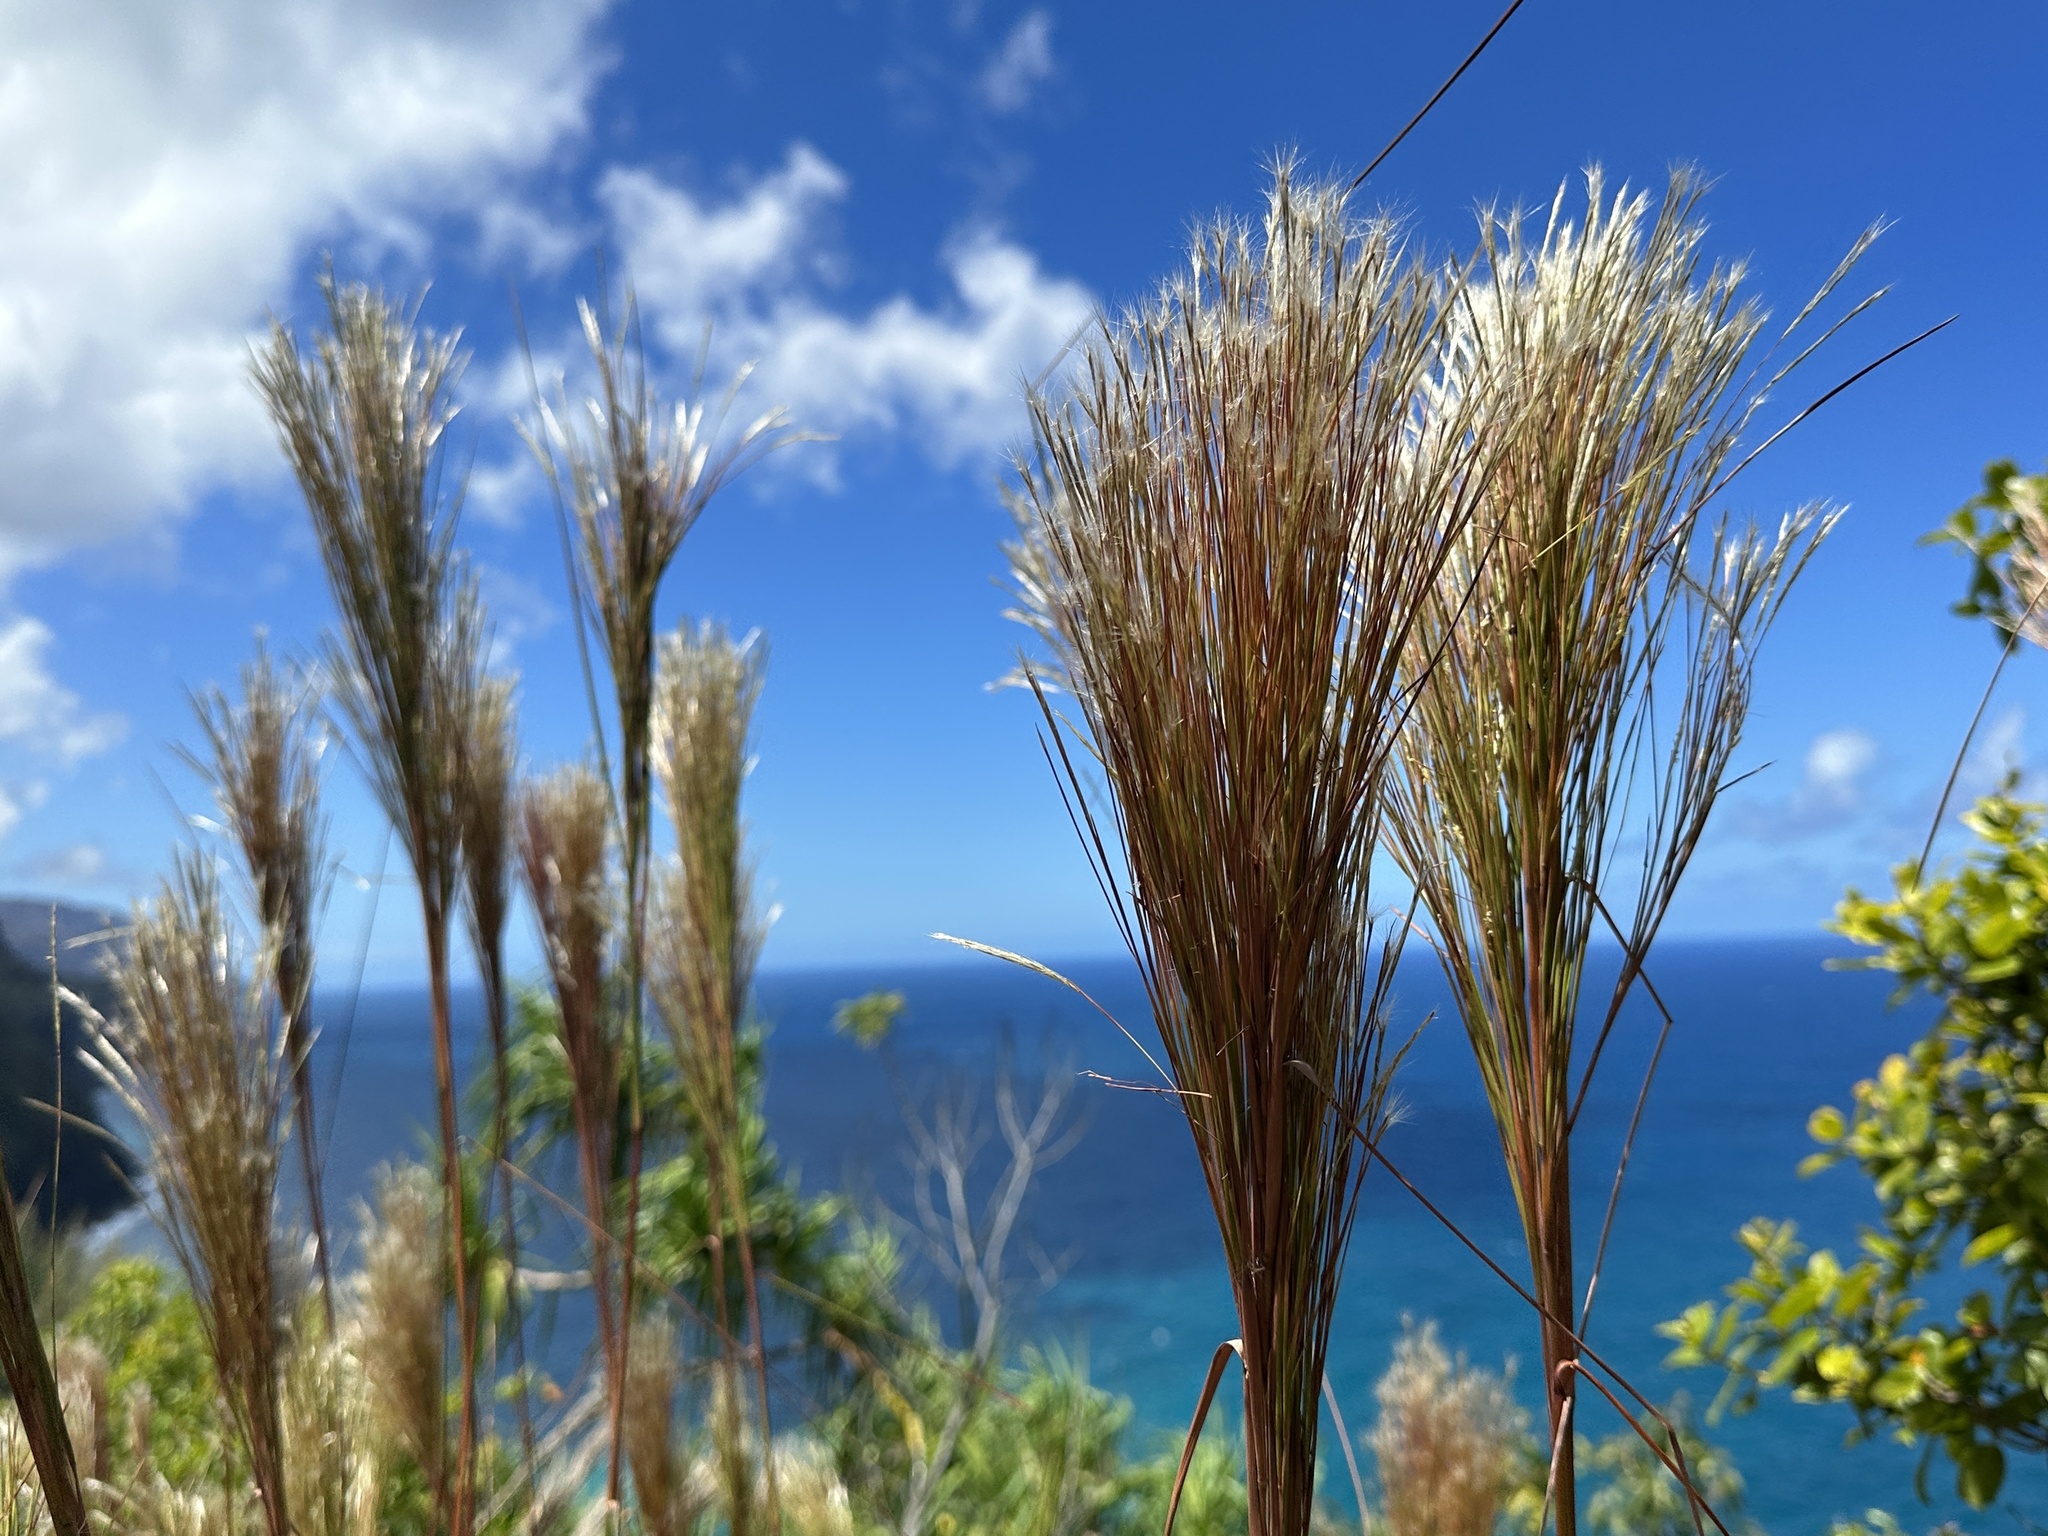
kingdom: Plantae
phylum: Tracheophyta
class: Liliopsida
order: Poales
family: Poaceae
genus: Andropogon
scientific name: Andropogon bicornis
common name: West indian foxtail grass
